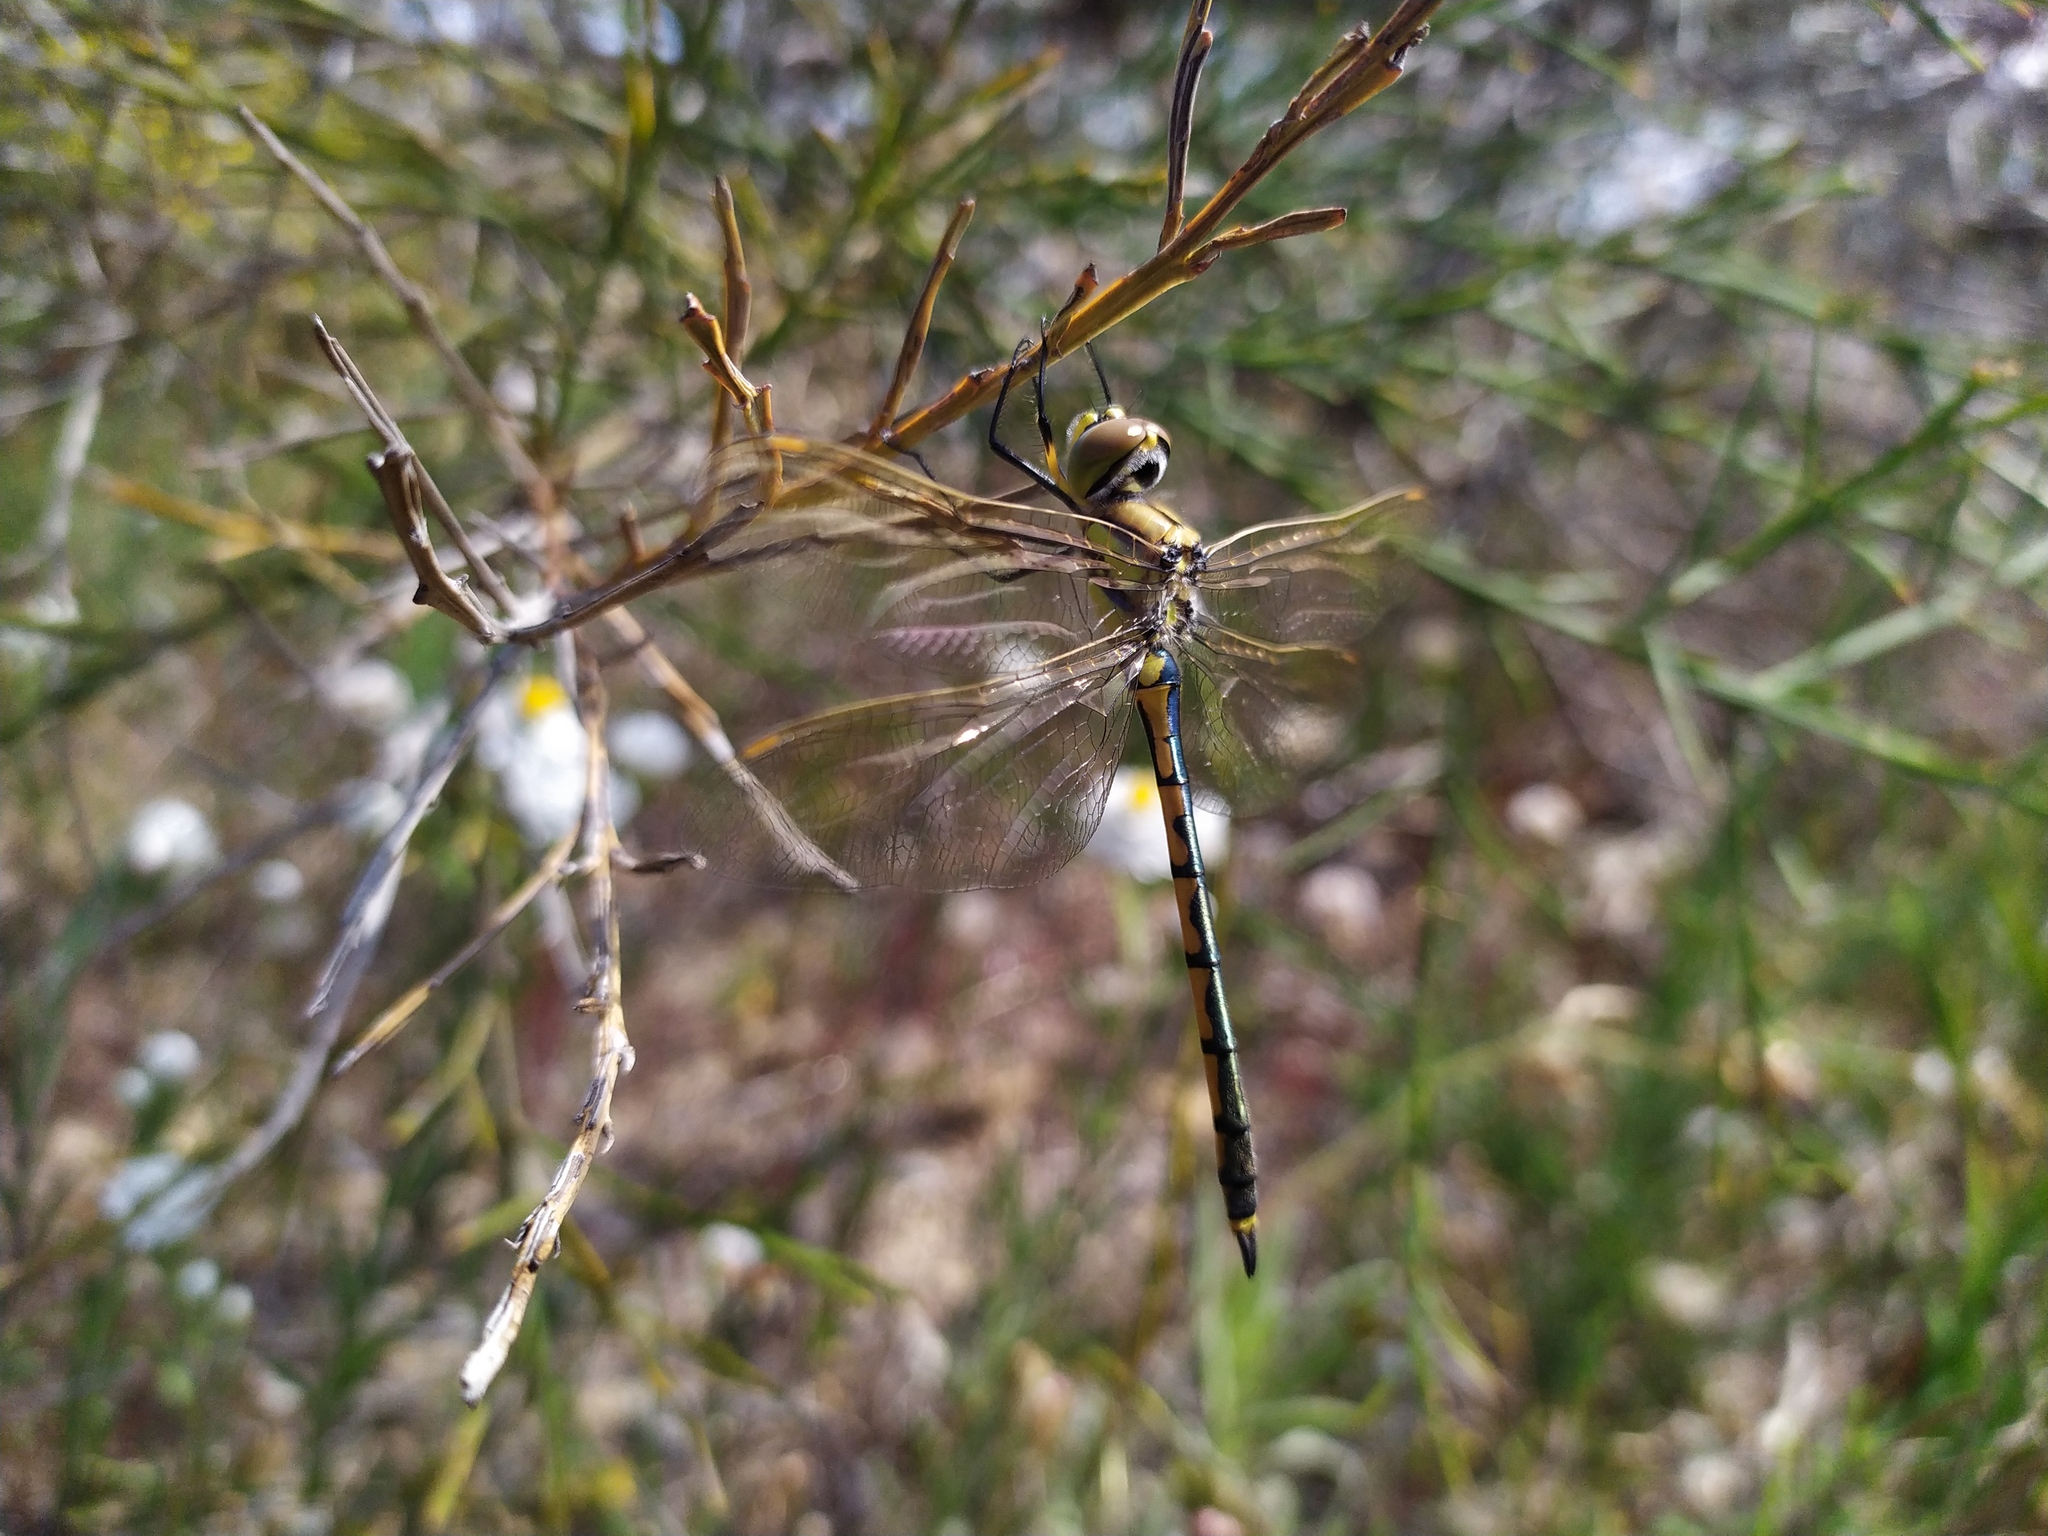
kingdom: Animalia
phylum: Arthropoda
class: Insecta
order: Odonata
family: Corduliidae
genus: Hemicordulia
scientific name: Hemicordulia tau
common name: Tau emerald
